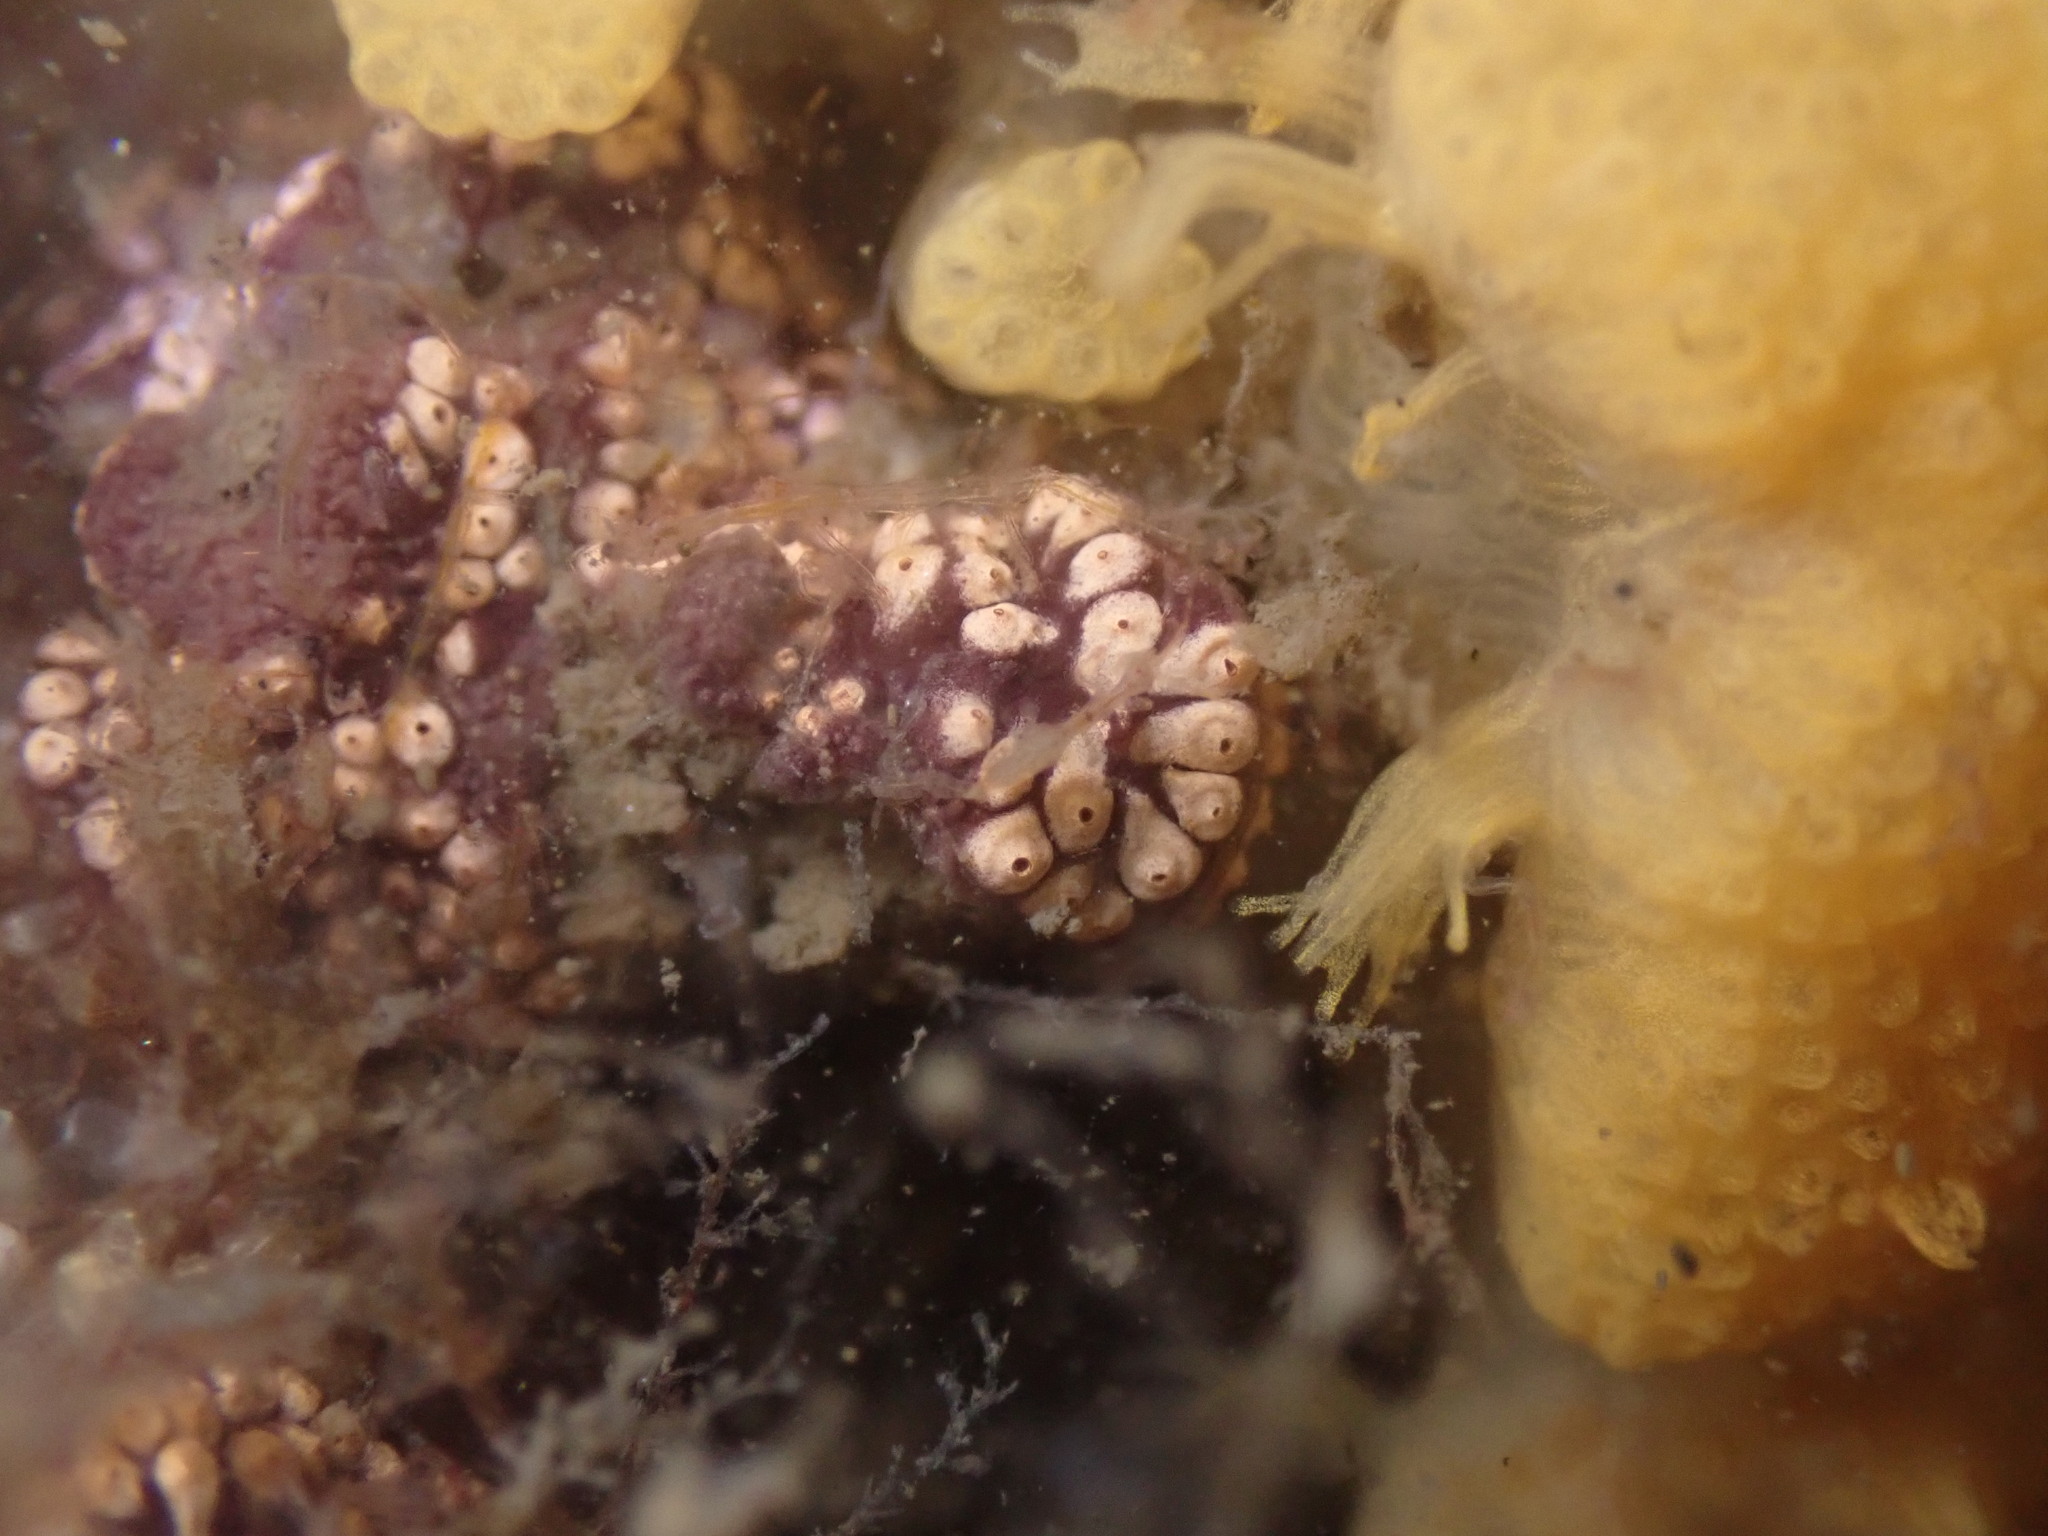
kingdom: Animalia
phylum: Chordata
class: Ascidiacea
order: Stolidobranchia
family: Styelidae
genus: Botrylloides
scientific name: Botrylloides diegensis
